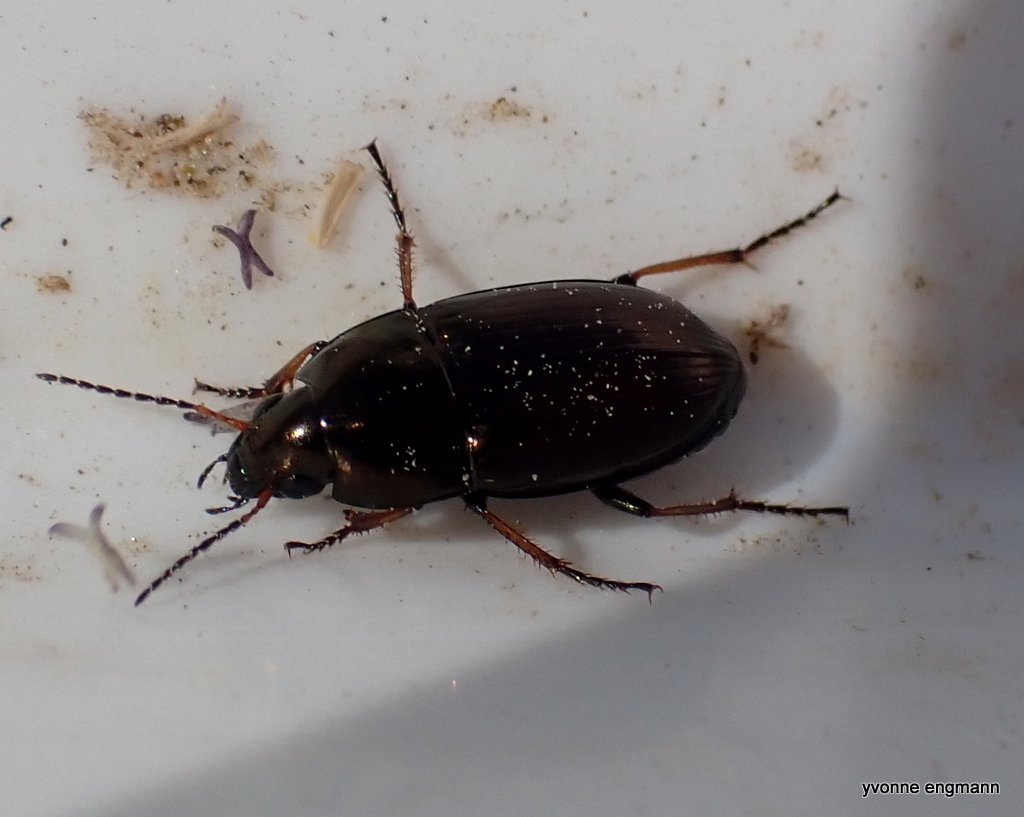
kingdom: Animalia
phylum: Arthropoda
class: Insecta
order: Coleoptera
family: Carabidae
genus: Amara
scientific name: Amara plebeja
